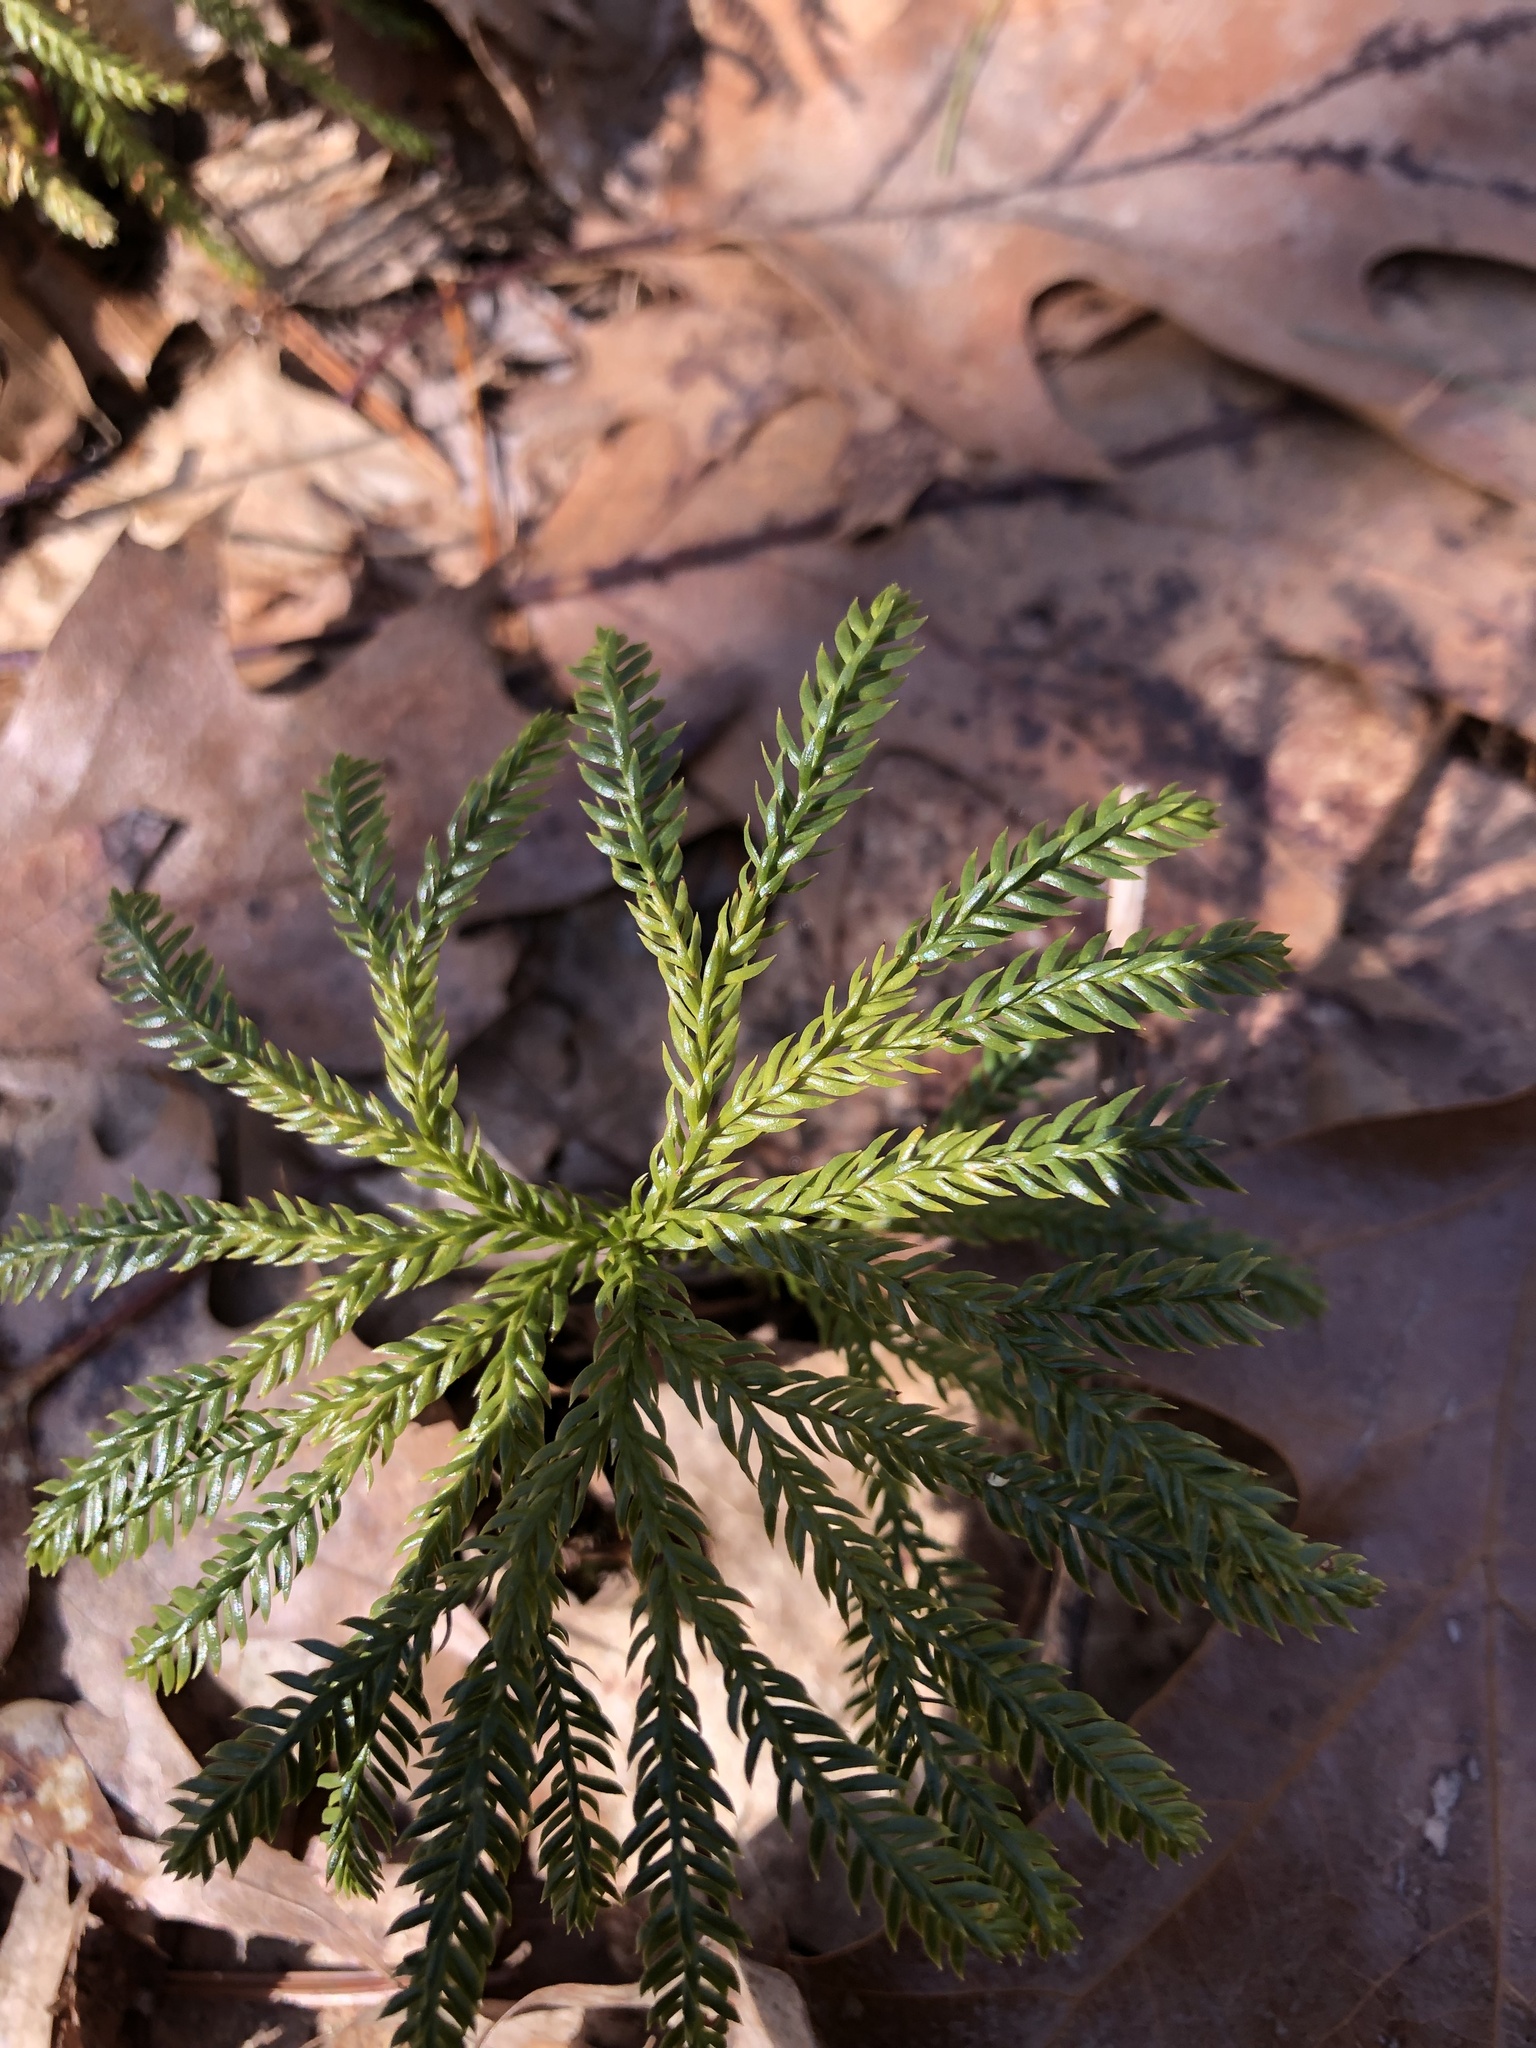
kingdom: Plantae
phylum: Tracheophyta
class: Lycopodiopsida
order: Lycopodiales
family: Lycopodiaceae
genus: Dendrolycopodium
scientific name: Dendrolycopodium obscurum
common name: Common ground-pine
